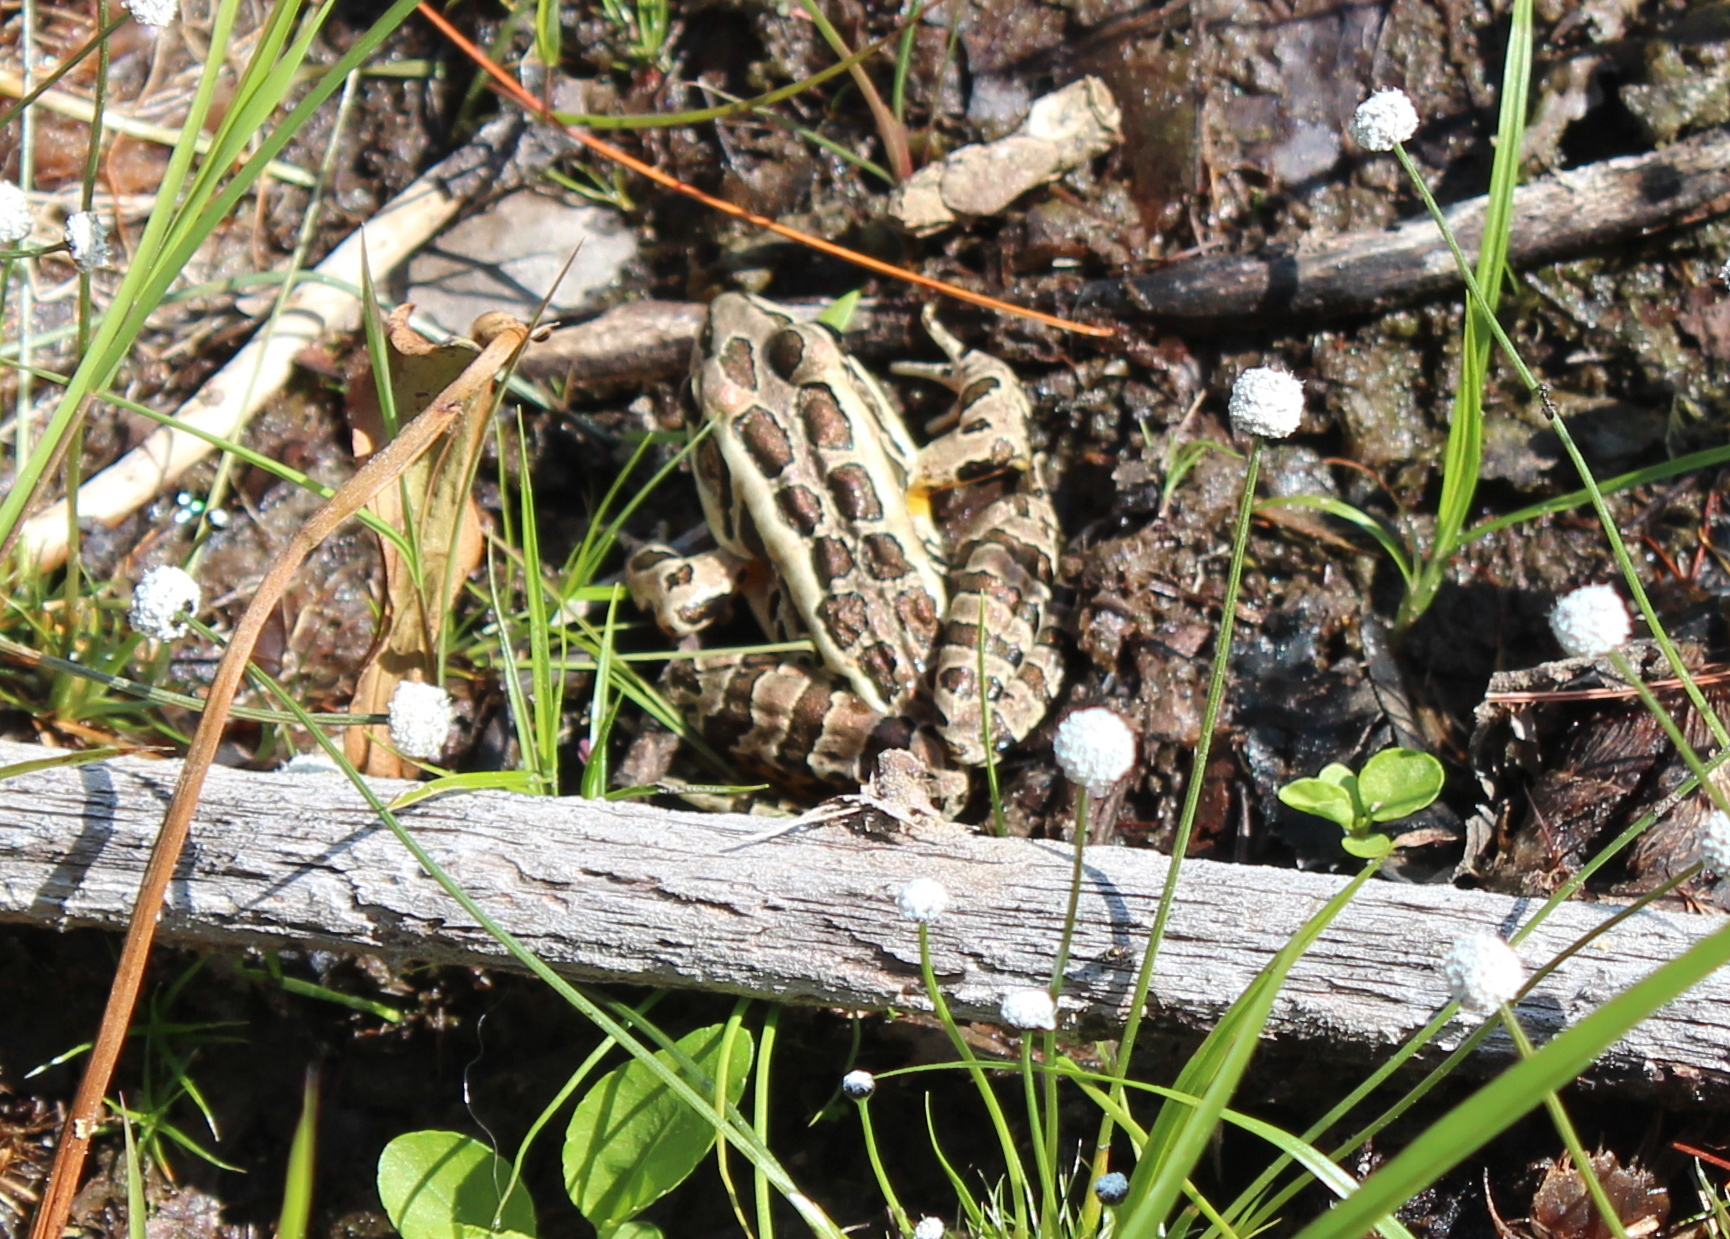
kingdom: Animalia
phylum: Chordata
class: Amphibia
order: Anura
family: Ranidae
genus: Lithobates
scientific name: Lithobates palustris
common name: Pickerel frog
